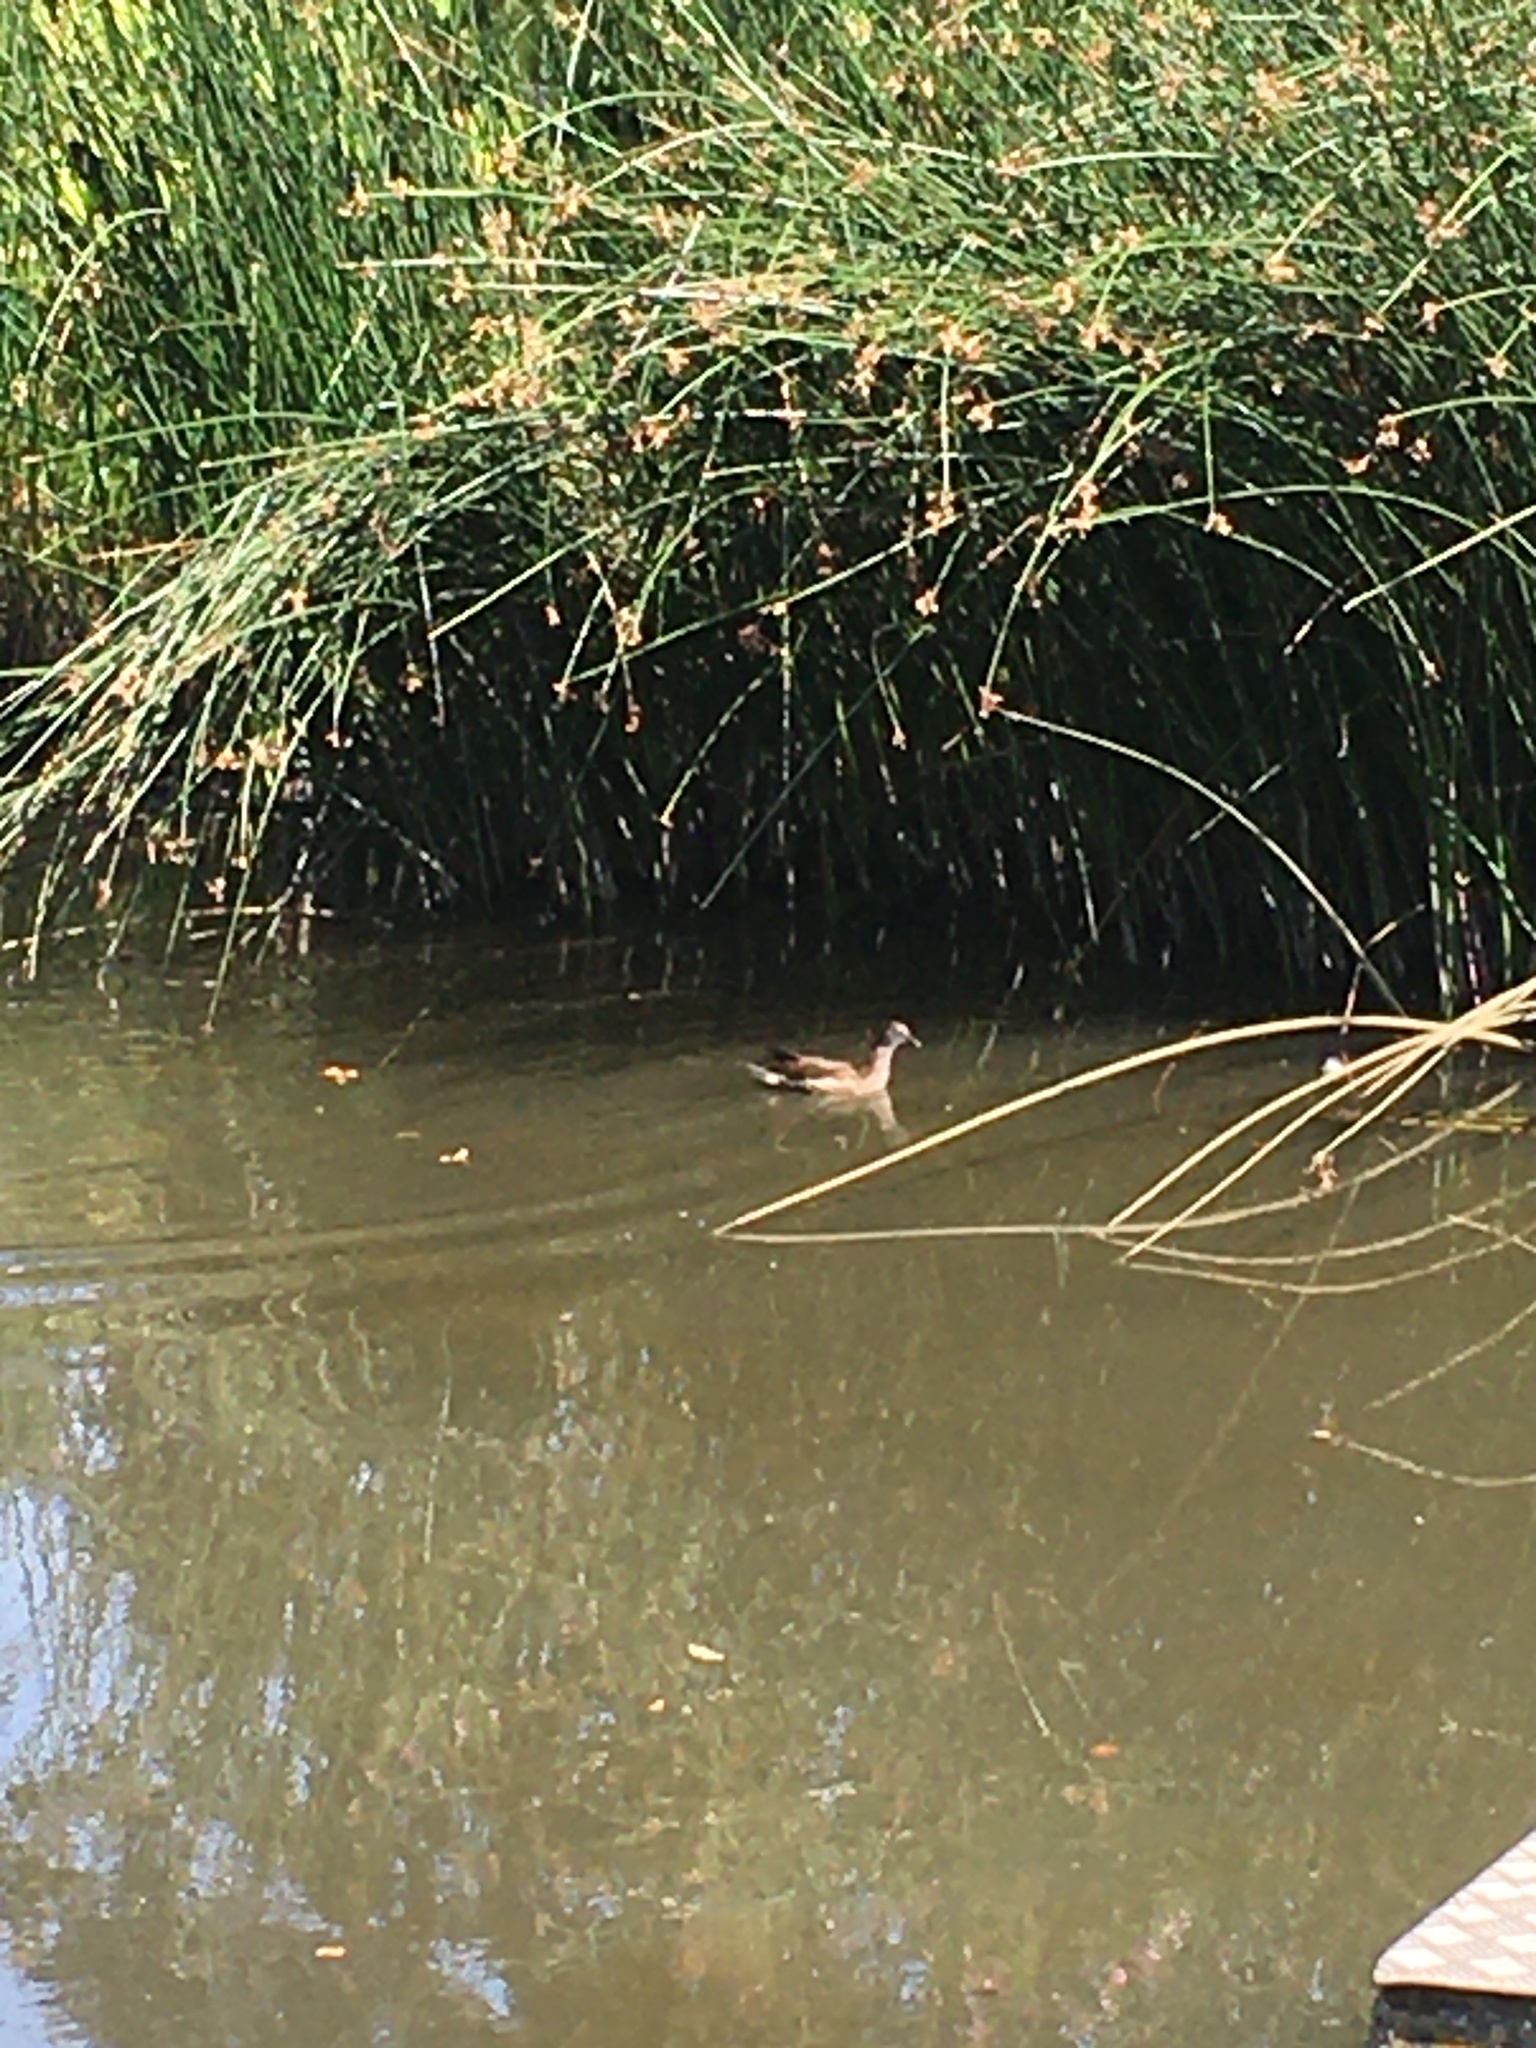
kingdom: Animalia
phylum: Chordata
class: Aves
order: Gruiformes
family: Rallidae
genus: Gallinula
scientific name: Gallinula chloropus
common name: Common moorhen
